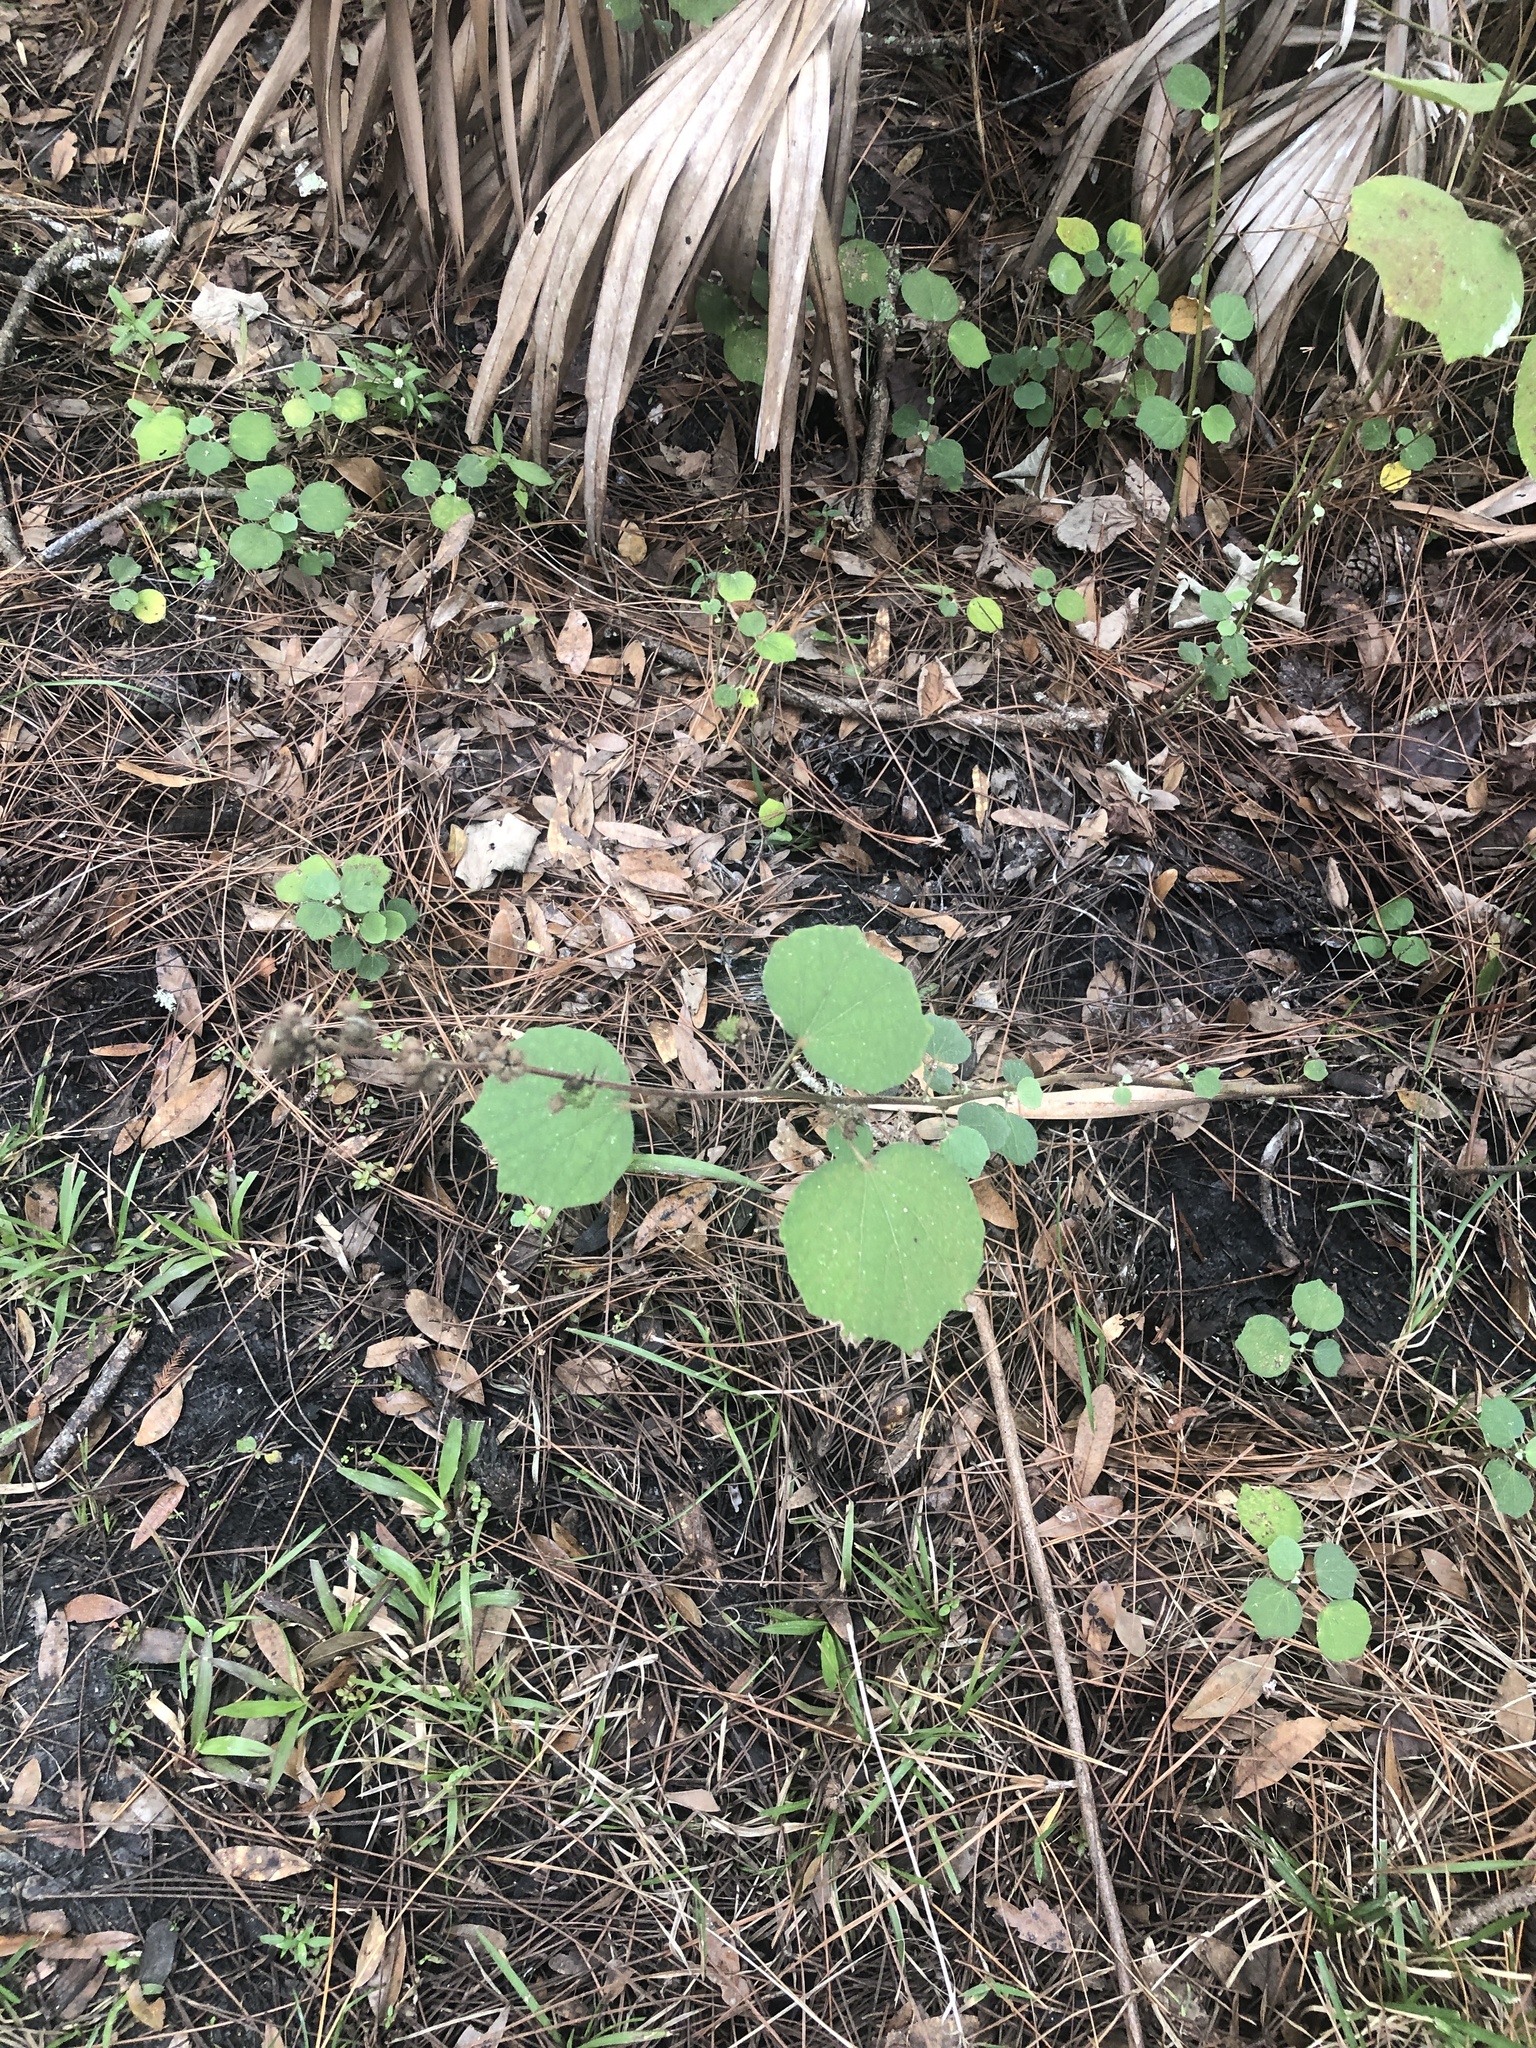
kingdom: Plantae
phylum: Tracheophyta
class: Magnoliopsida
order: Malvales
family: Malvaceae
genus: Urena
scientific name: Urena lobata
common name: Caesarweed
